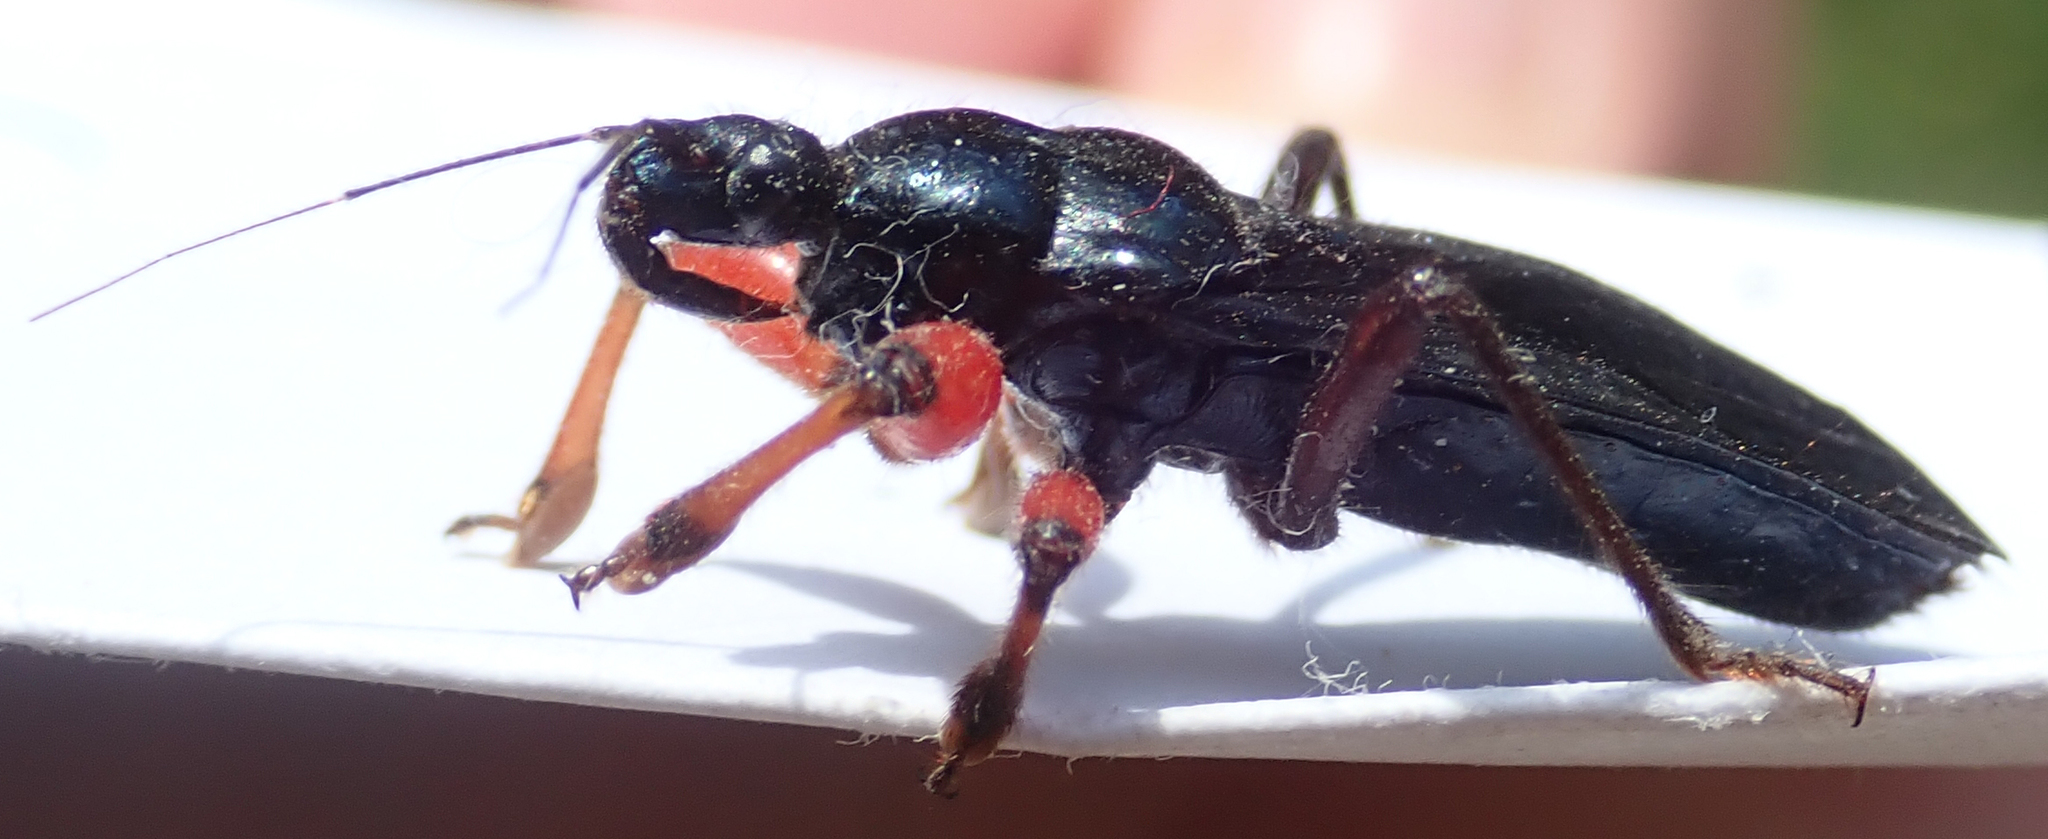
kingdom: Animalia
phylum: Arthropoda
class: Insecta
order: Hemiptera
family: Reduviidae
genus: Phonergates
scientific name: Phonergates bicoloripes
